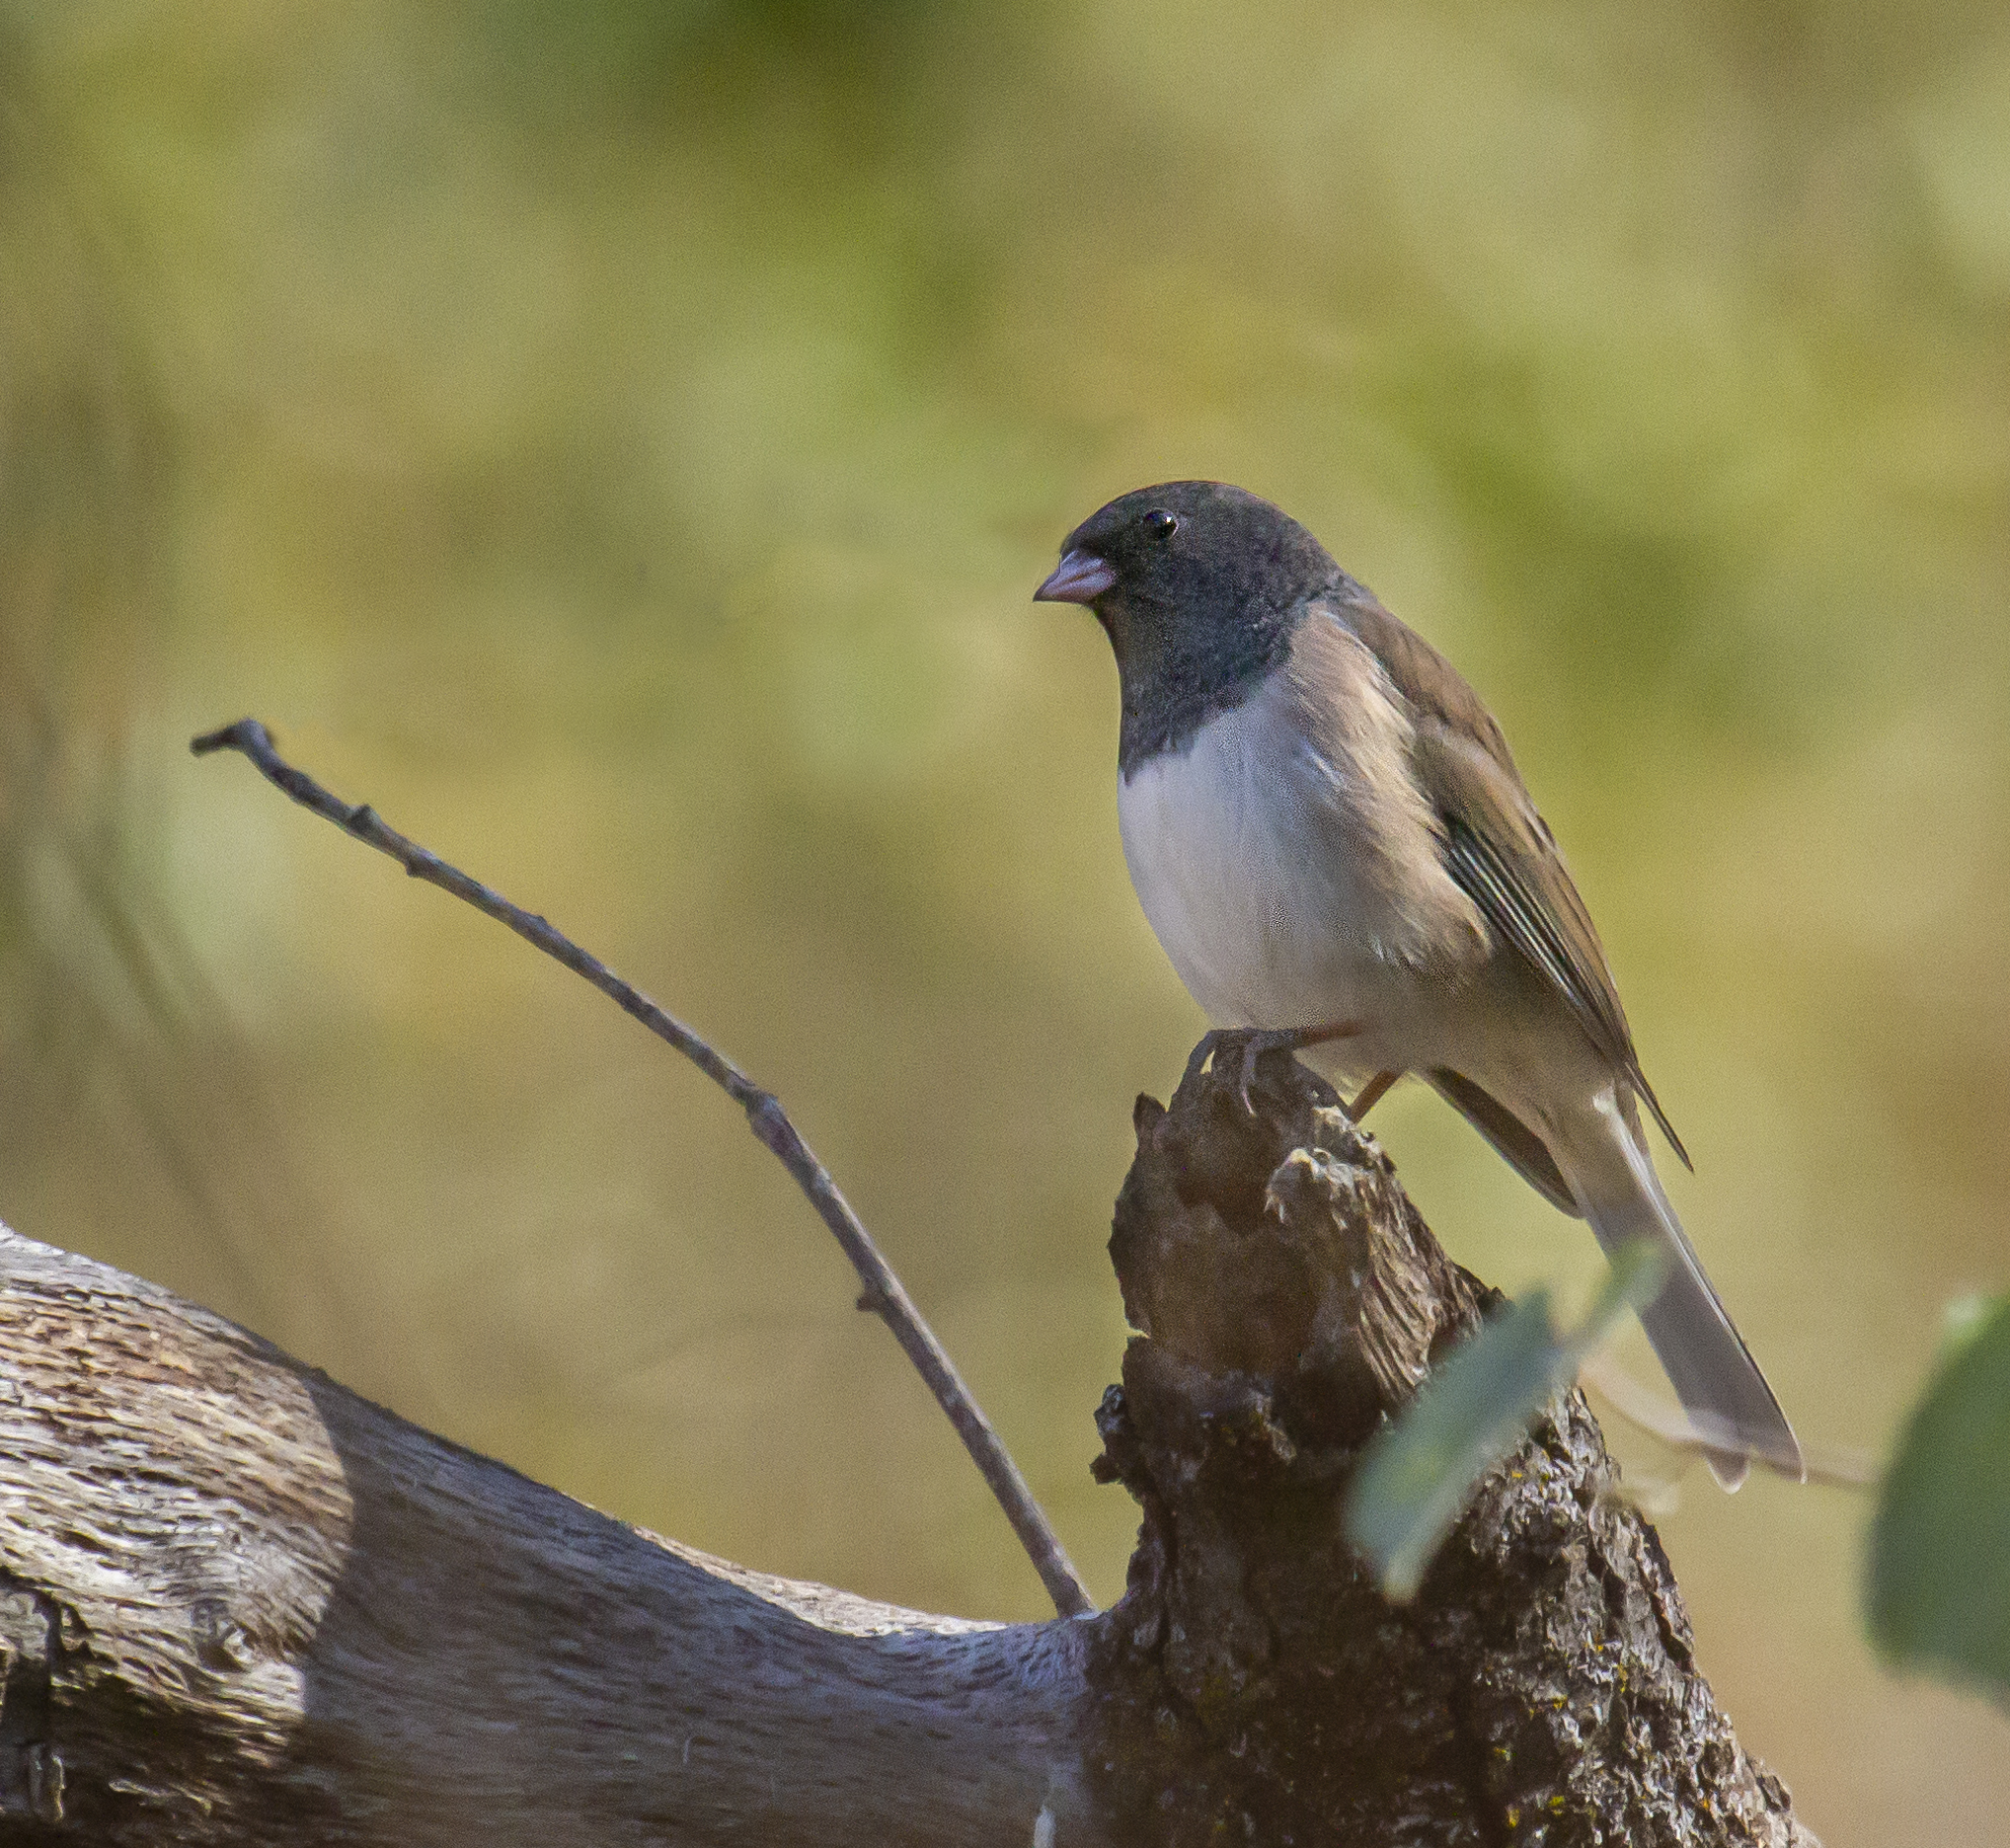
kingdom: Animalia
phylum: Chordata
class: Aves
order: Passeriformes
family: Passerellidae
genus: Junco
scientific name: Junco hyemalis
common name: Dark-eyed junco
